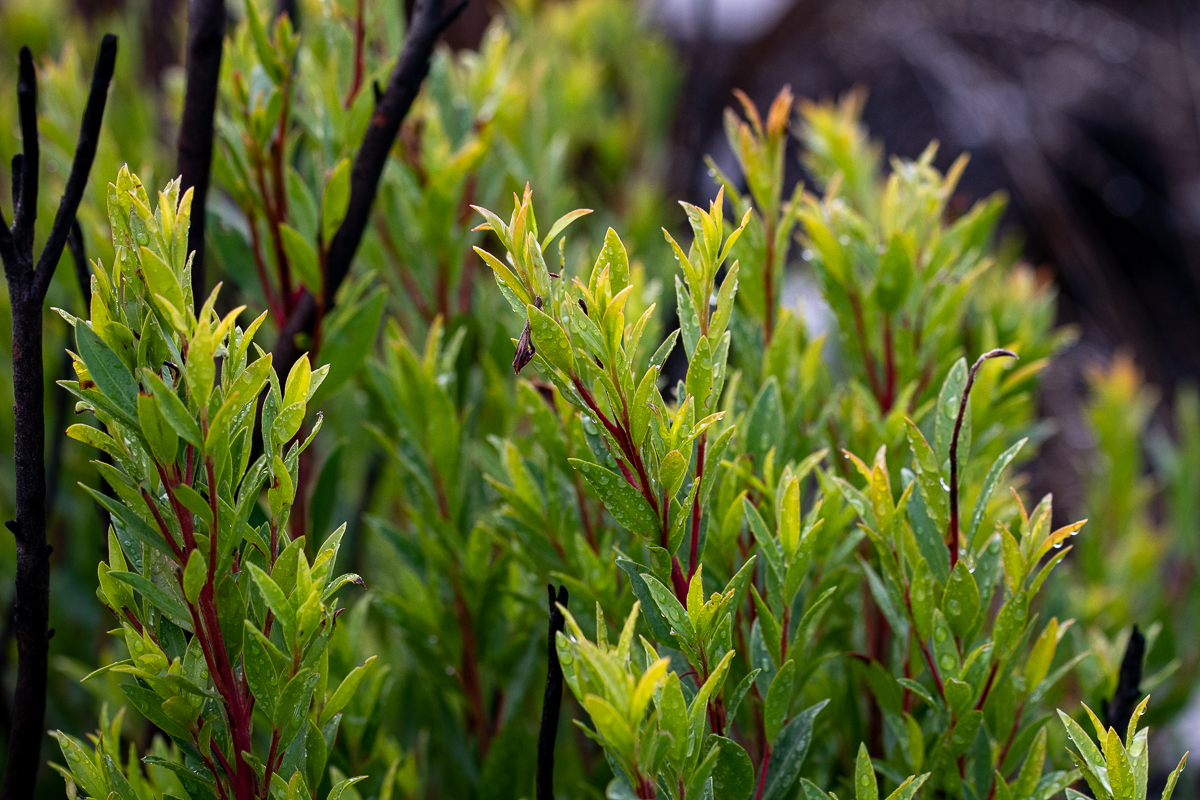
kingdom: Plantae
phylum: Tracheophyta
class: Magnoliopsida
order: Ericales
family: Ebenaceae
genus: Diospyros
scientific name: Diospyros glabra
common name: Fynbos star apple
